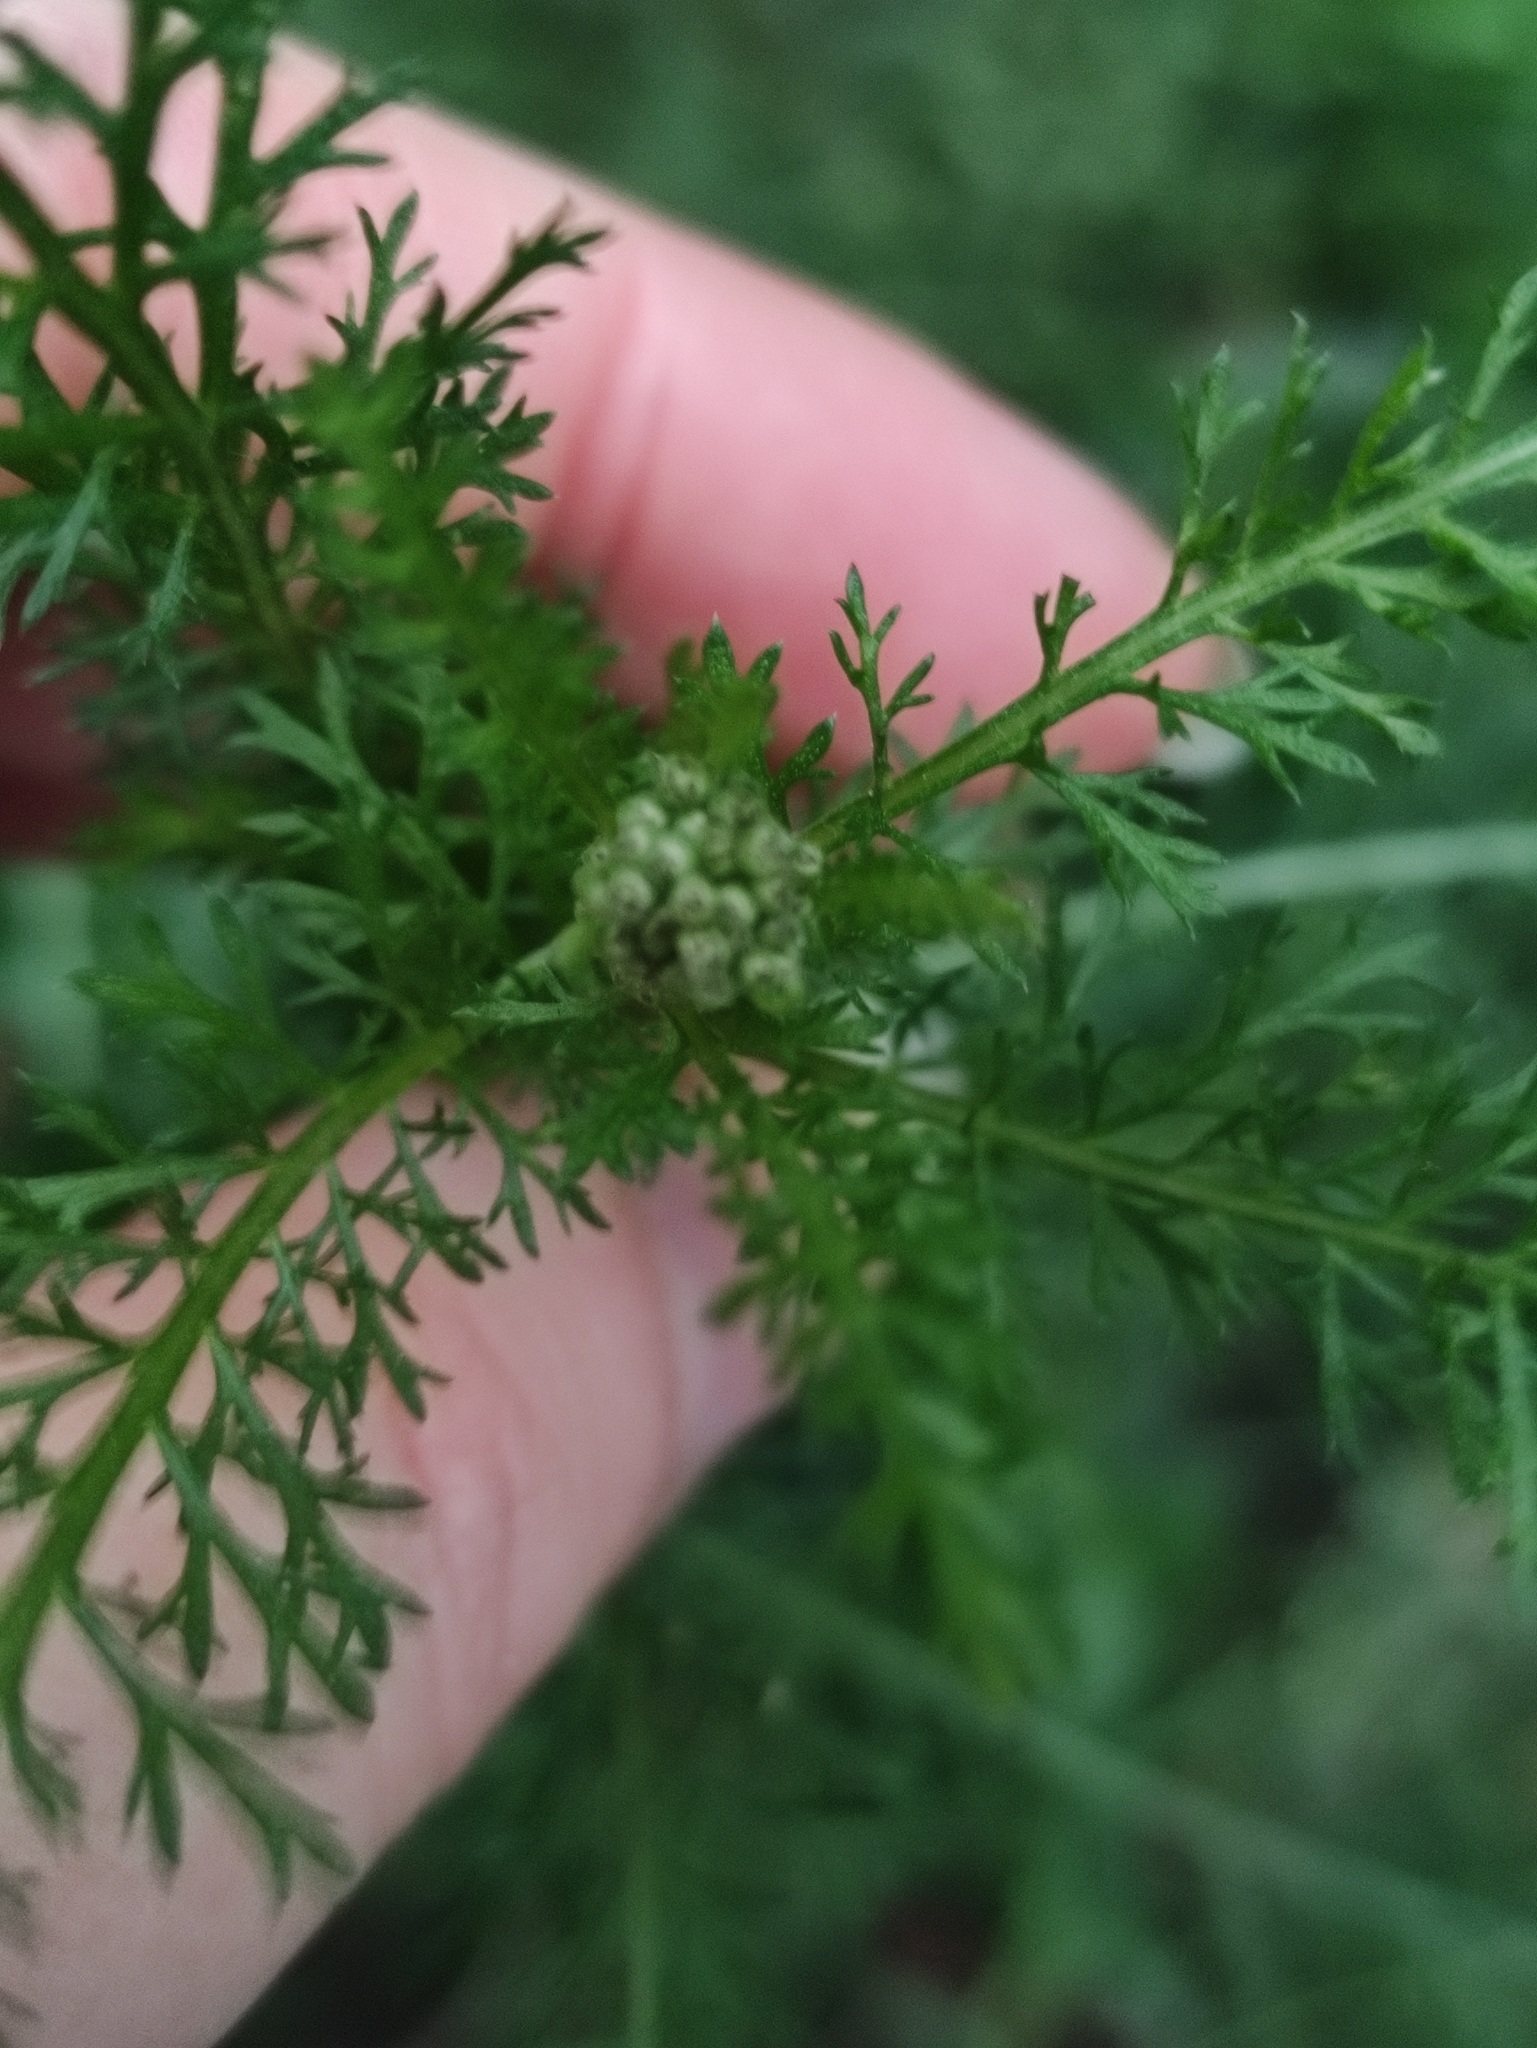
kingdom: Plantae
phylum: Tracheophyta
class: Magnoliopsida
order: Asterales
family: Asteraceae
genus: Achillea
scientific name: Achillea millefolium
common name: Yarrow
